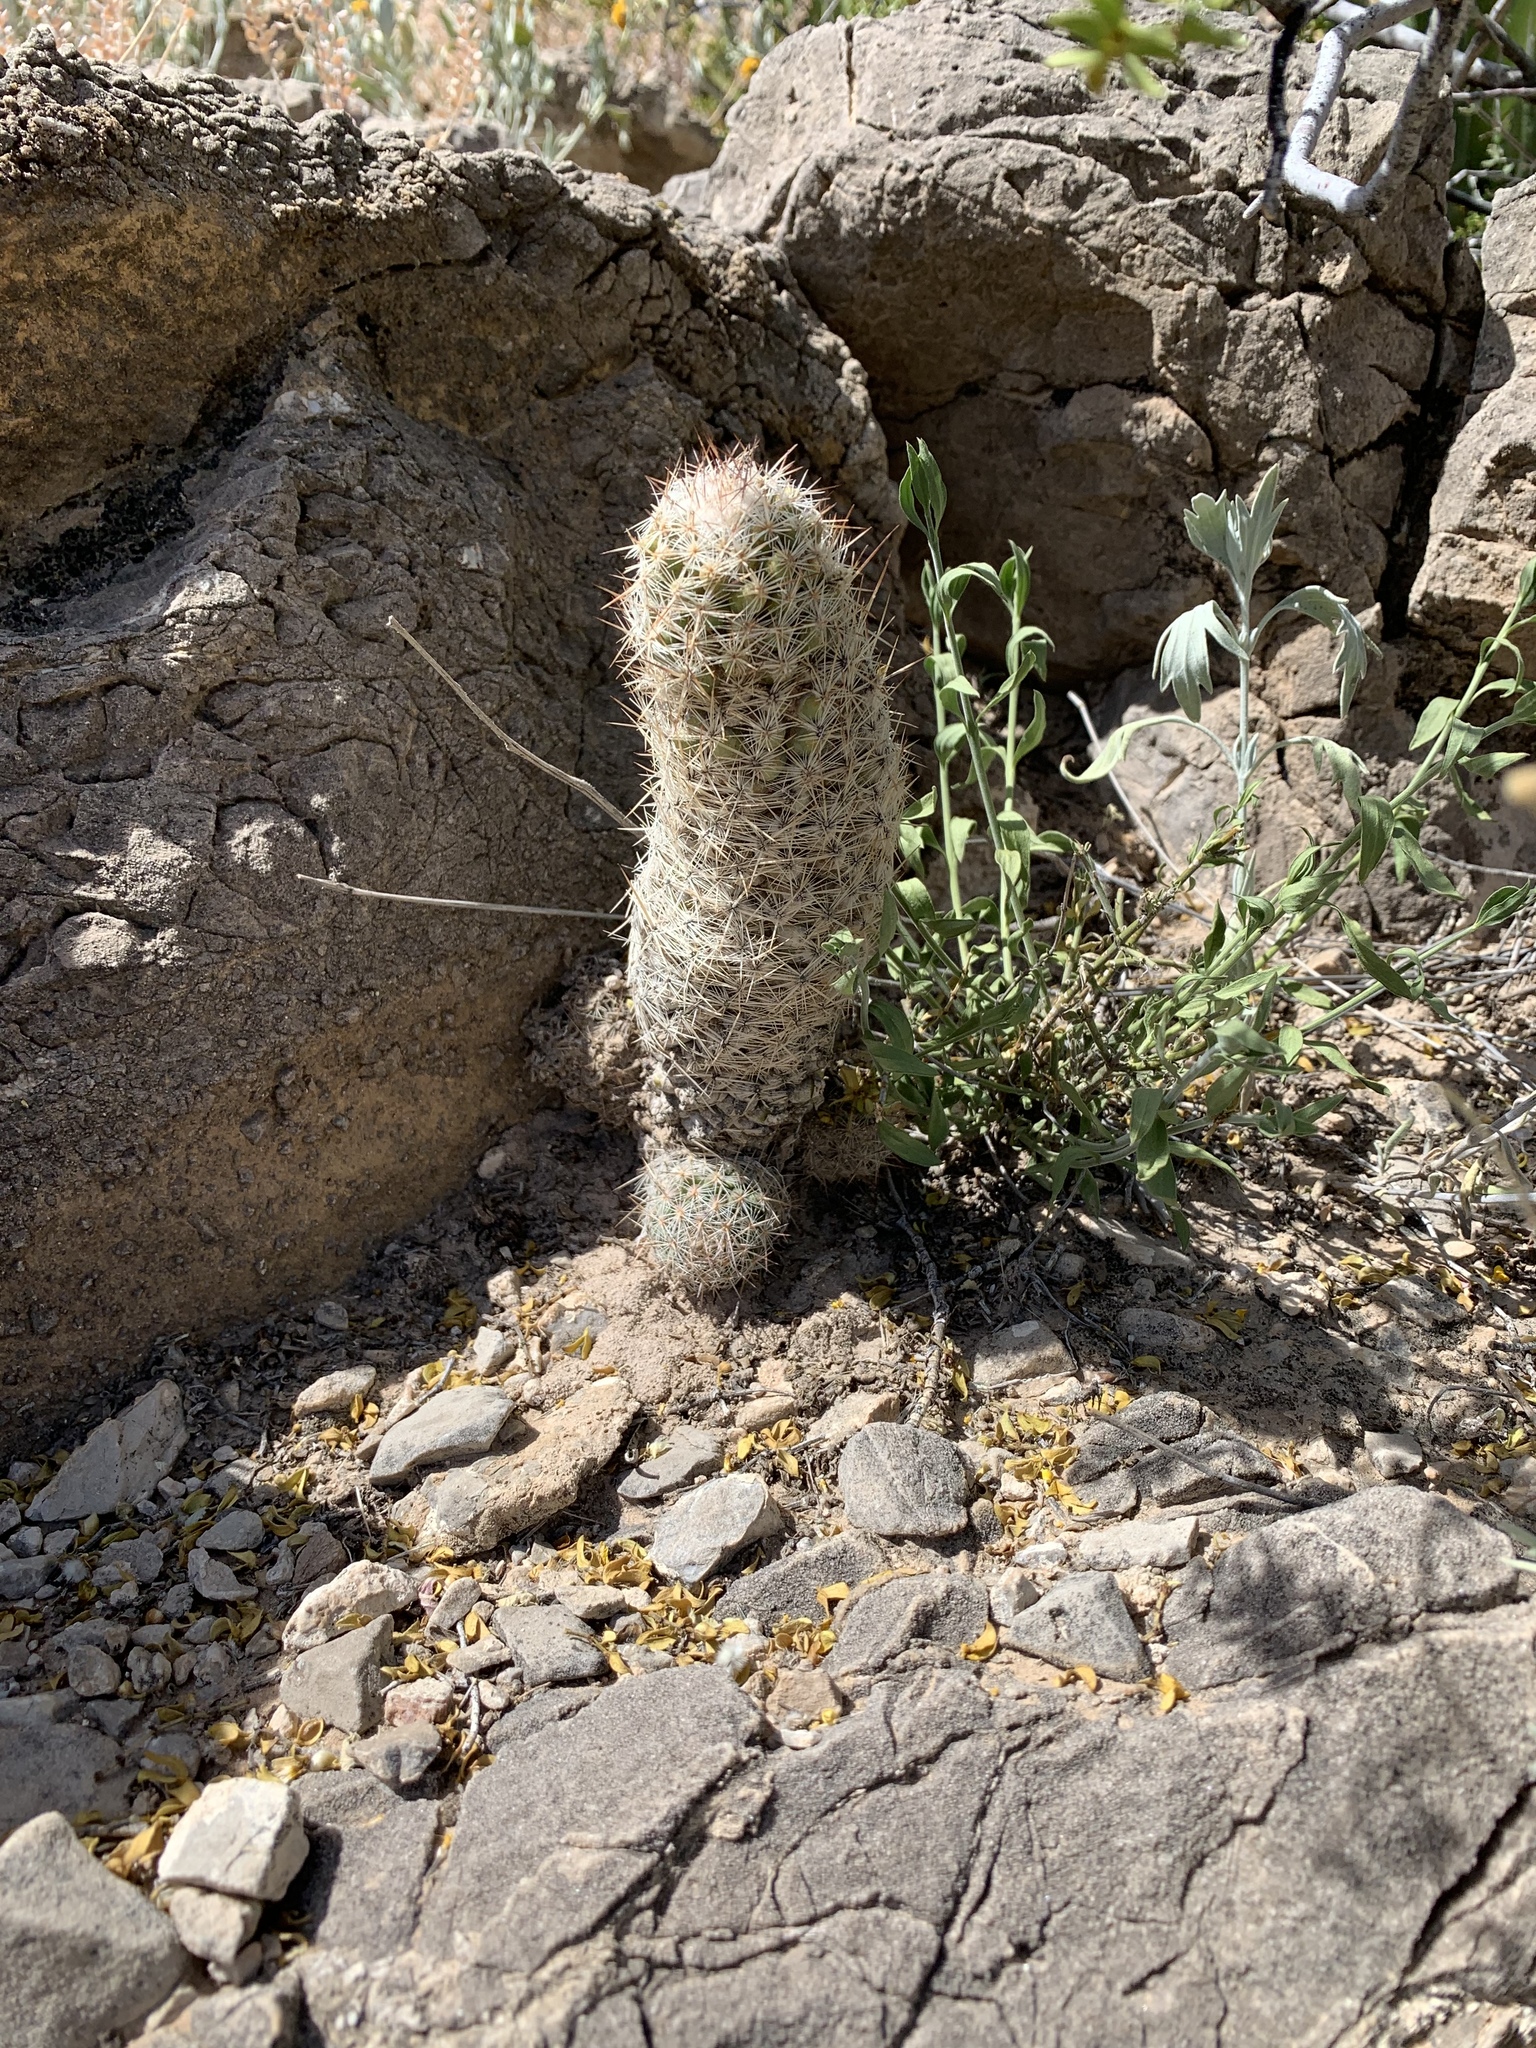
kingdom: Plantae
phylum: Tracheophyta
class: Magnoliopsida
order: Caryophyllales
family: Cactaceae
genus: Pelecyphora
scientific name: Pelecyphora tuberculosa
